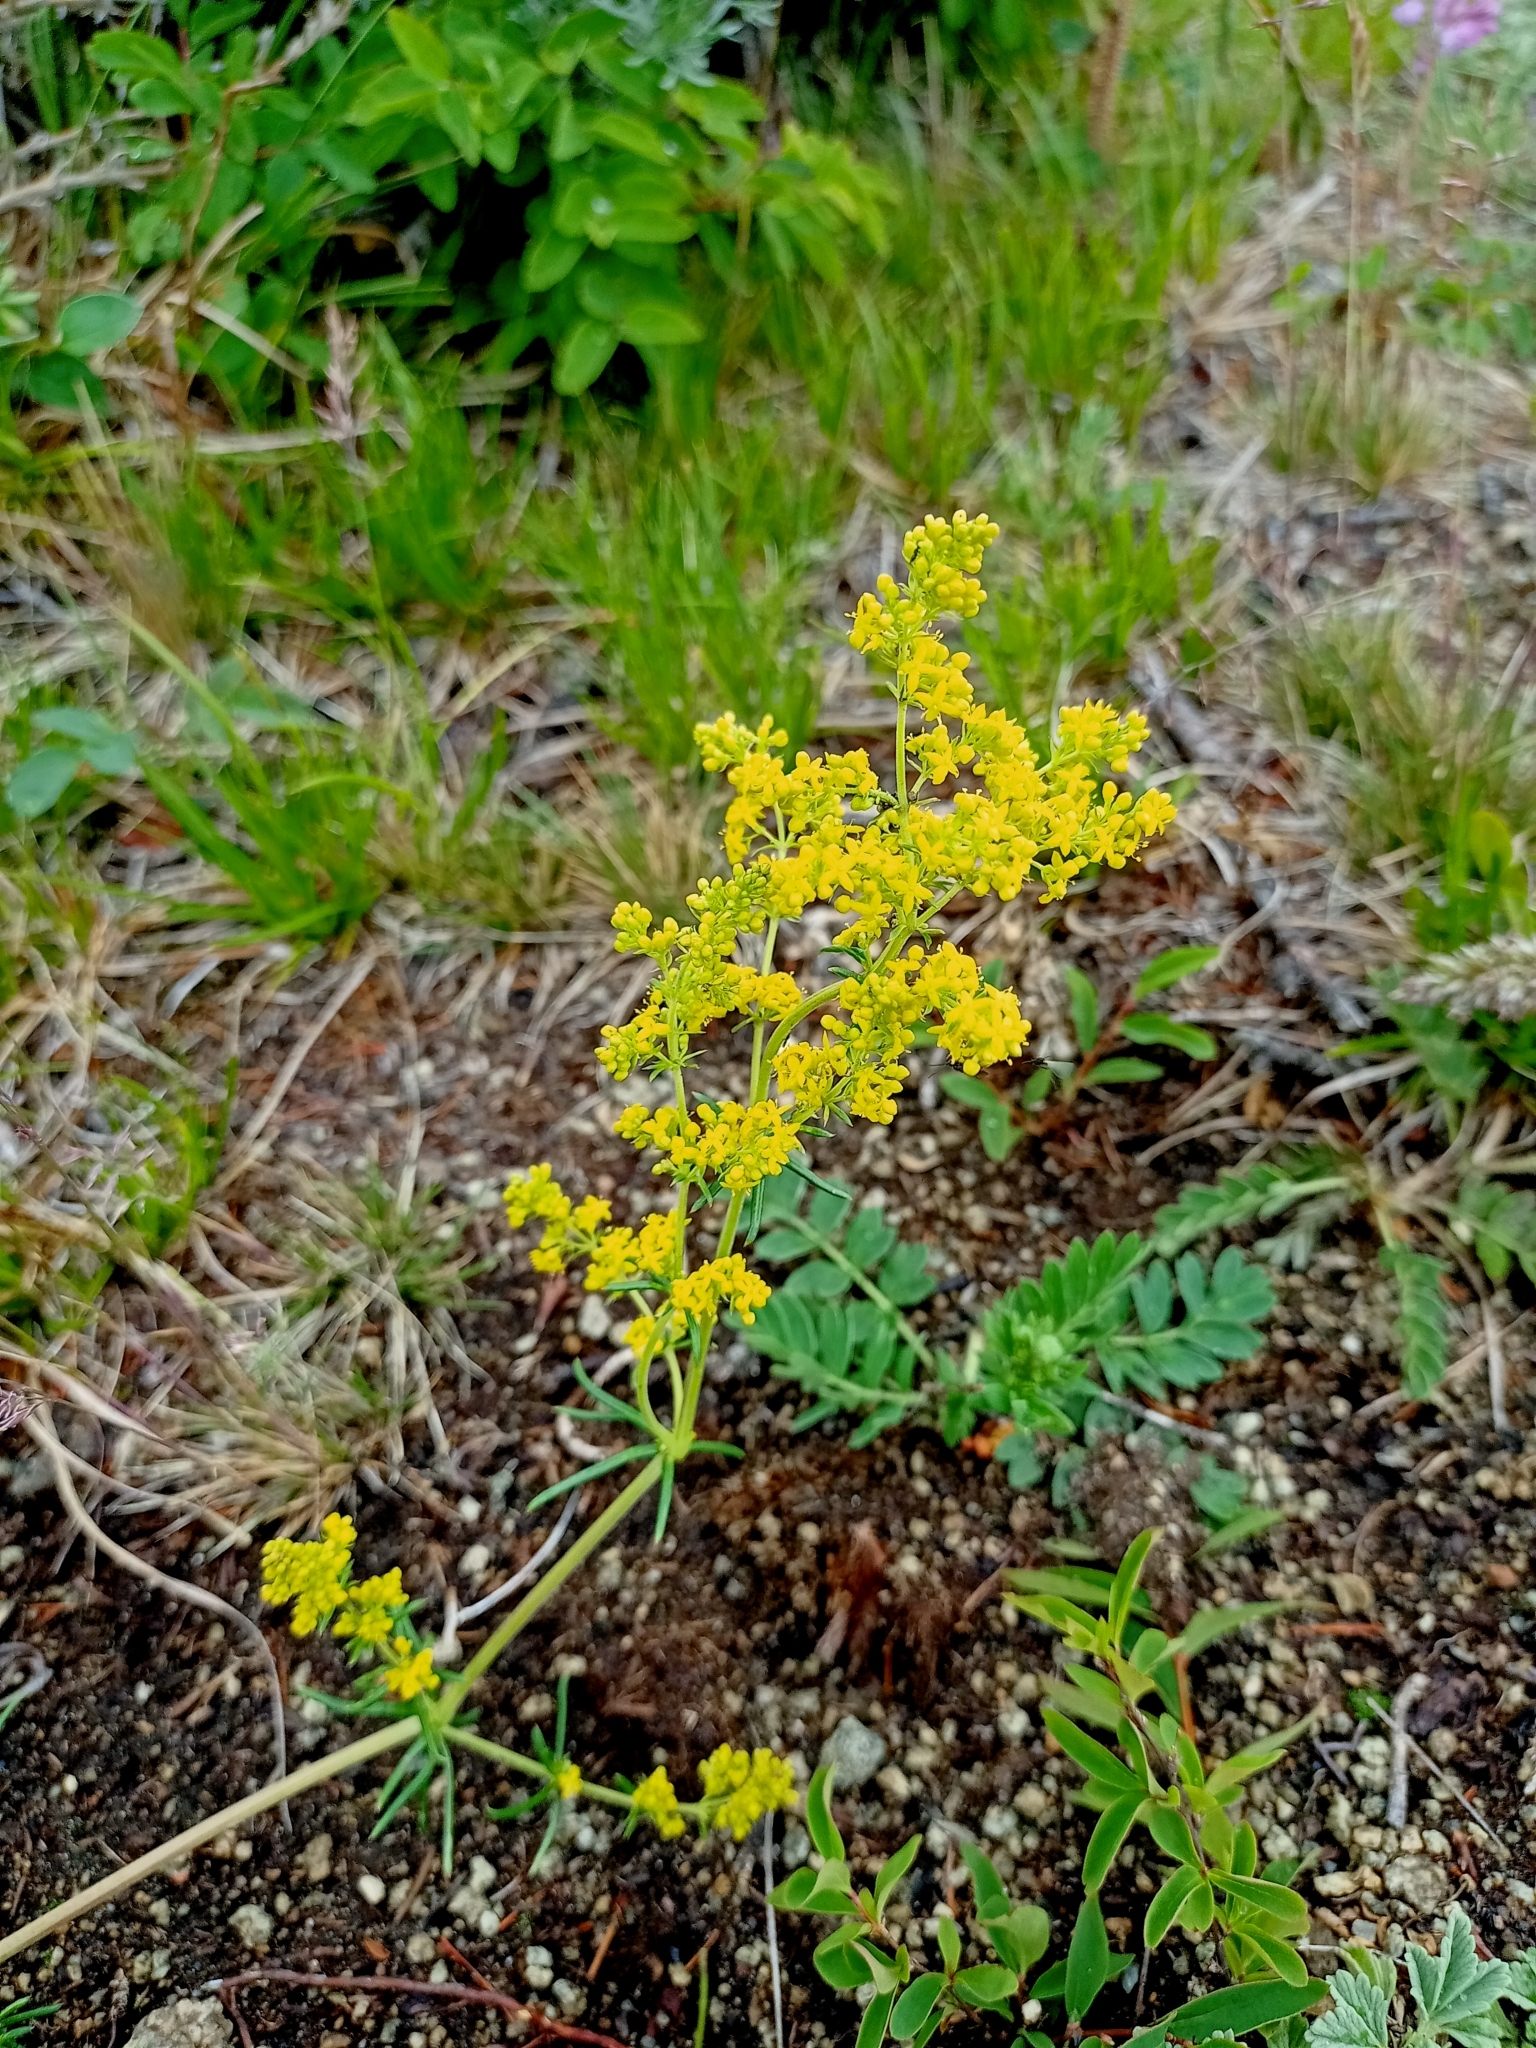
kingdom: Plantae
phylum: Tracheophyta
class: Magnoliopsida
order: Gentianales
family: Rubiaceae
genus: Galium
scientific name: Galium verum
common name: Lady's bedstraw
